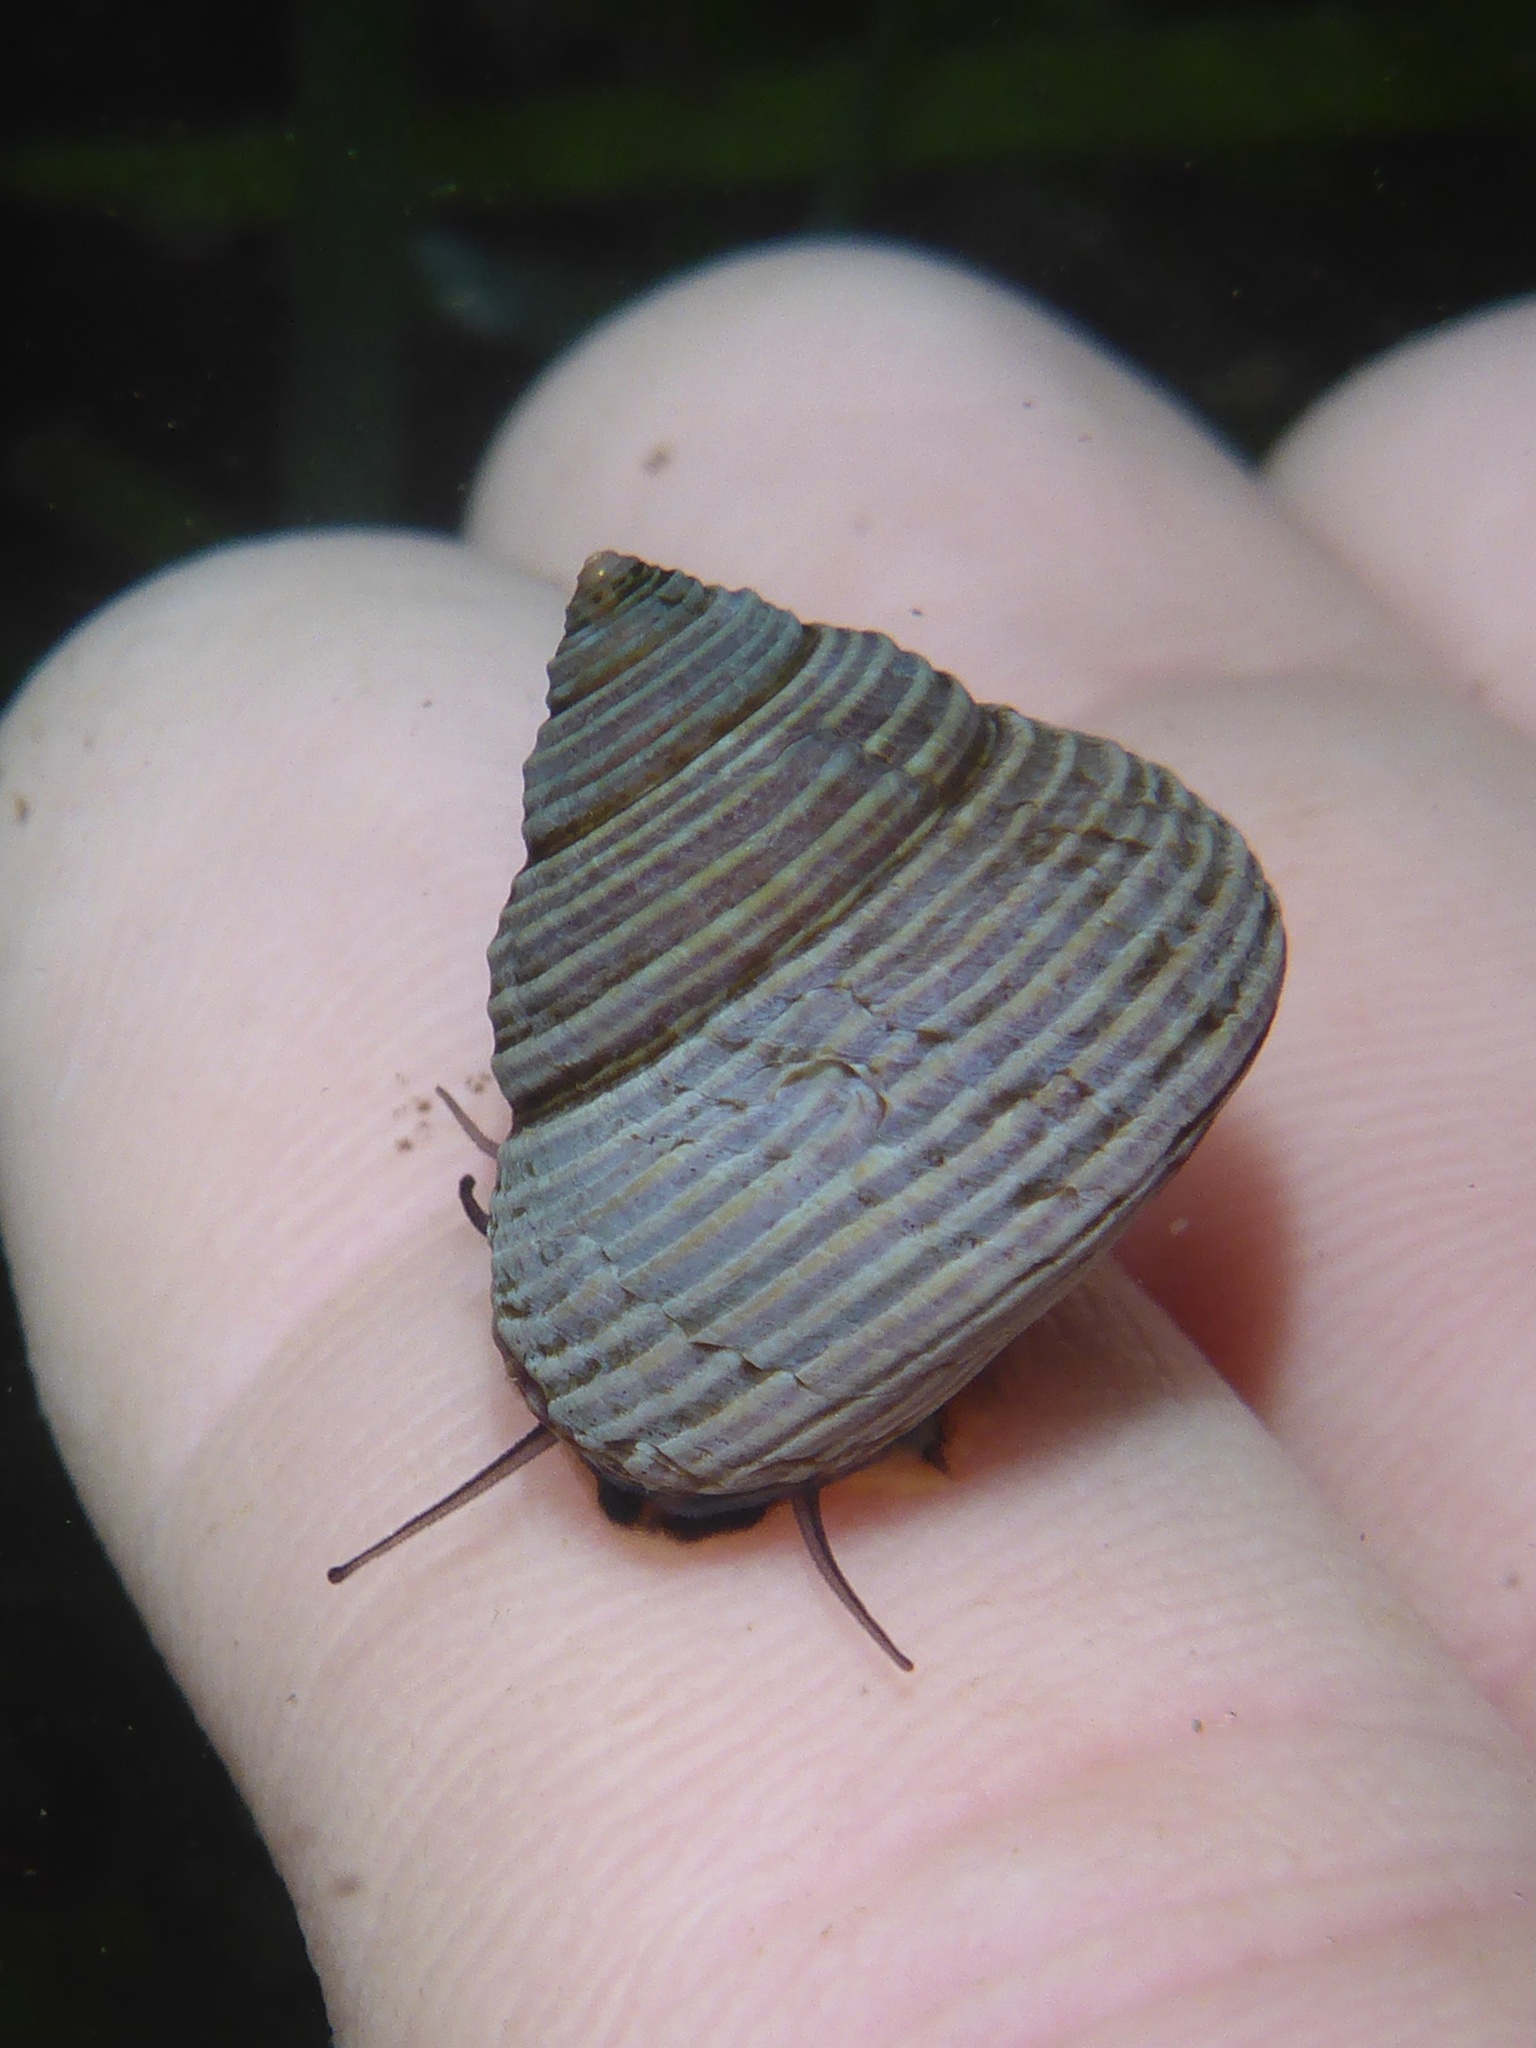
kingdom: Animalia
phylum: Mollusca
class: Gastropoda
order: Trochida
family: Calliostomatidae
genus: Calliostoma
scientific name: Calliostoma ligatum
